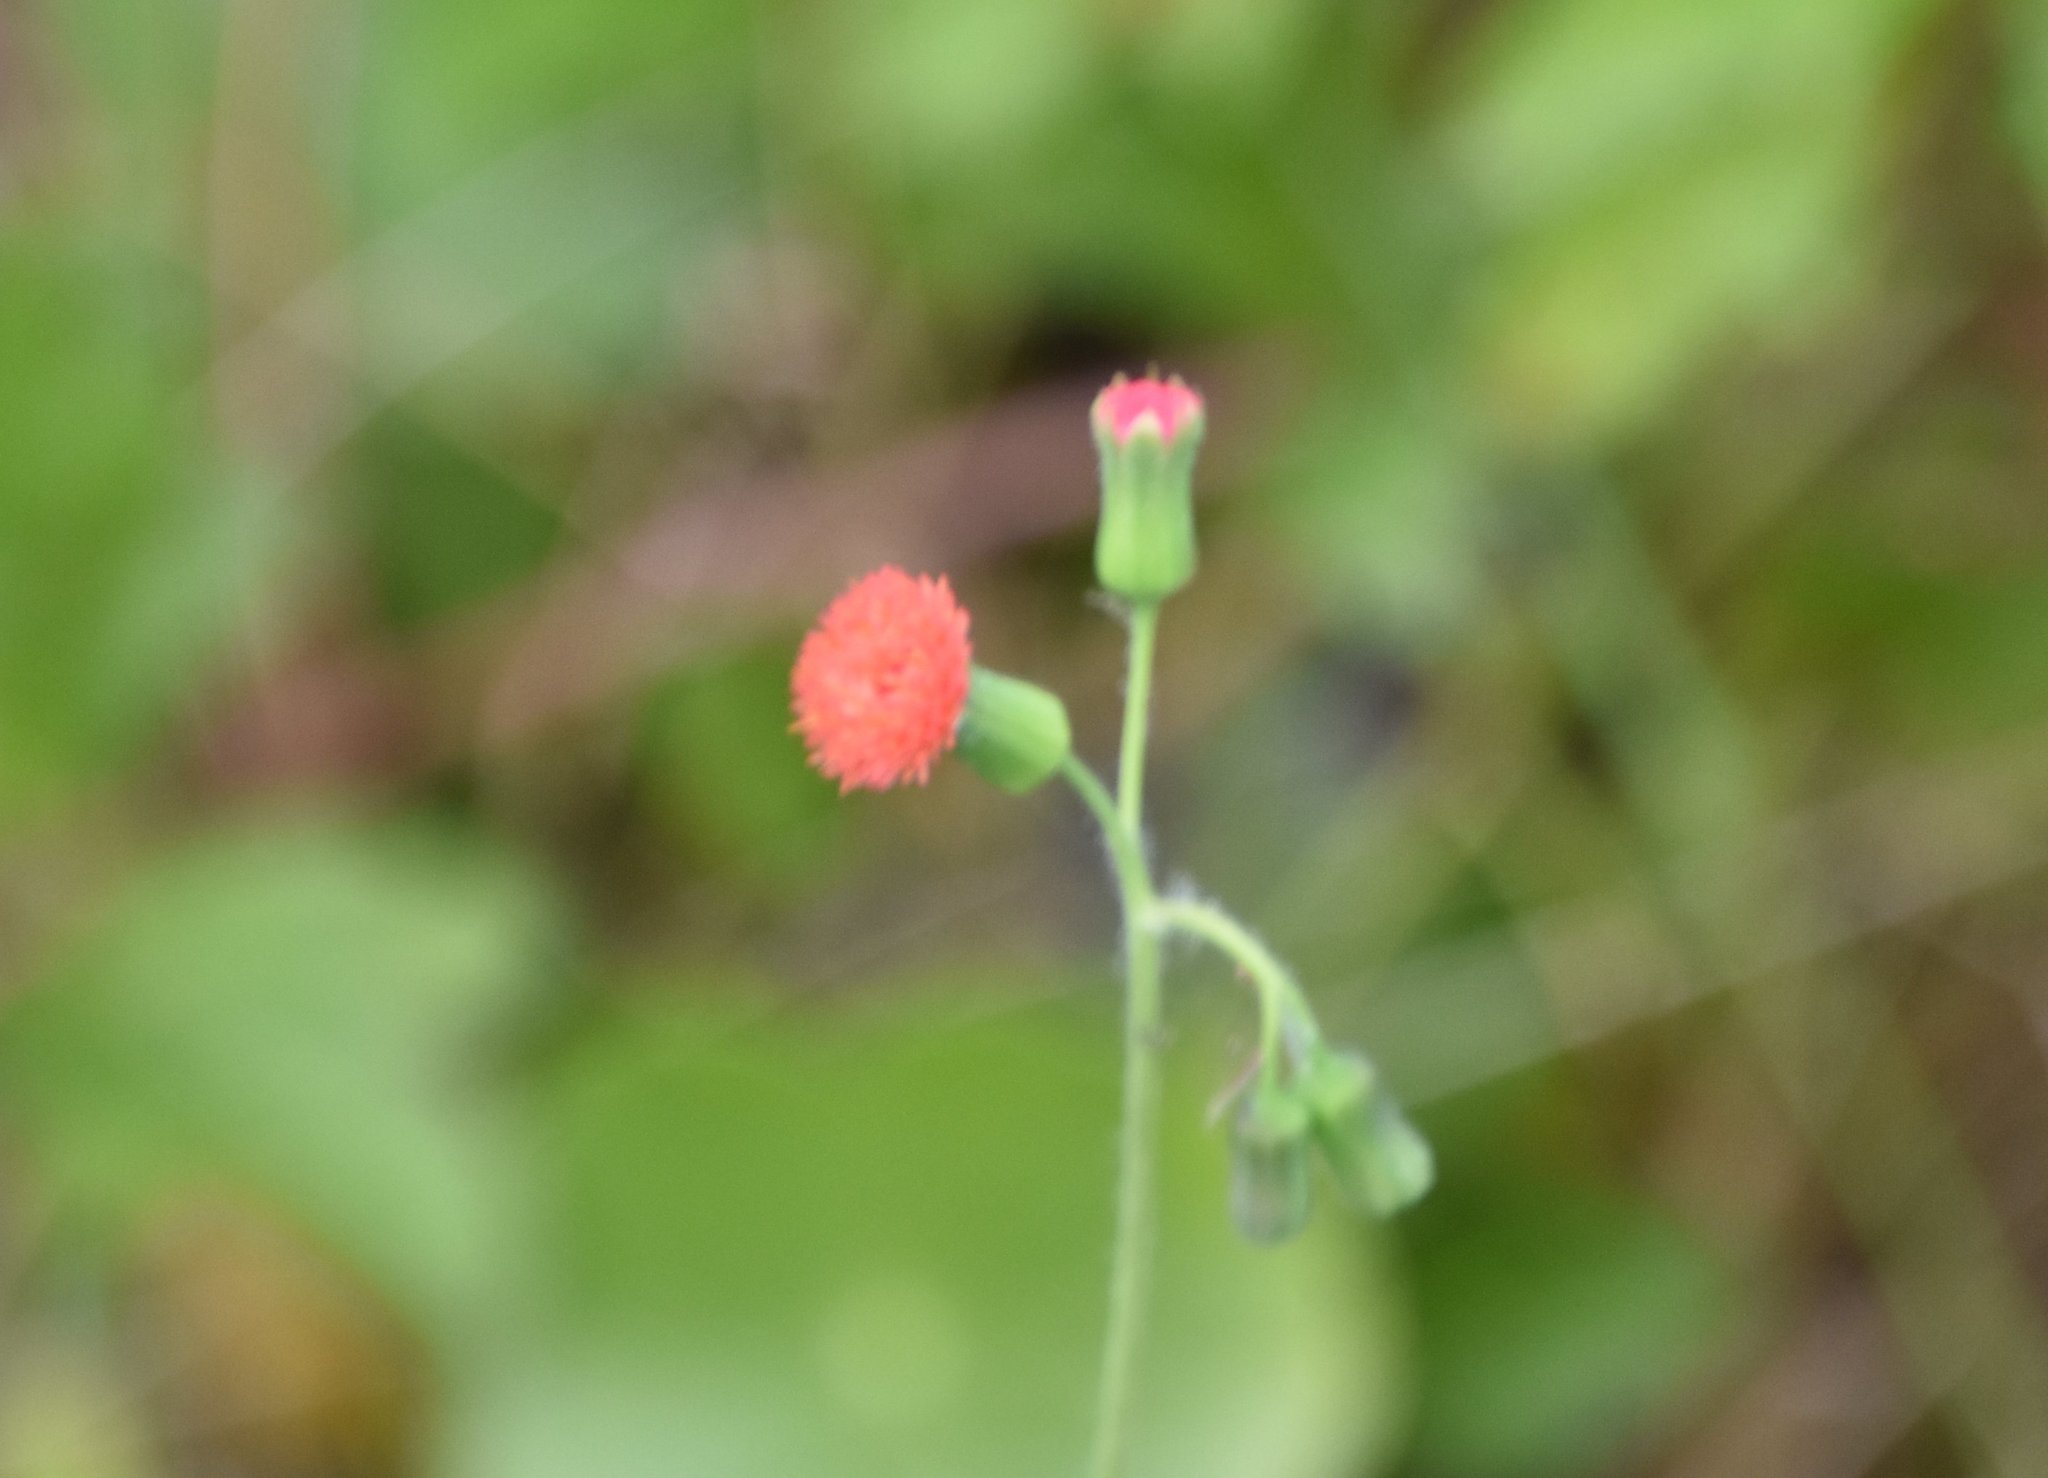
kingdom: Plantae
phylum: Tracheophyta
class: Magnoliopsida
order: Asterales
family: Asteraceae
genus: Emilia
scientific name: Emilia fosbergii
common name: Florida tasselflower
